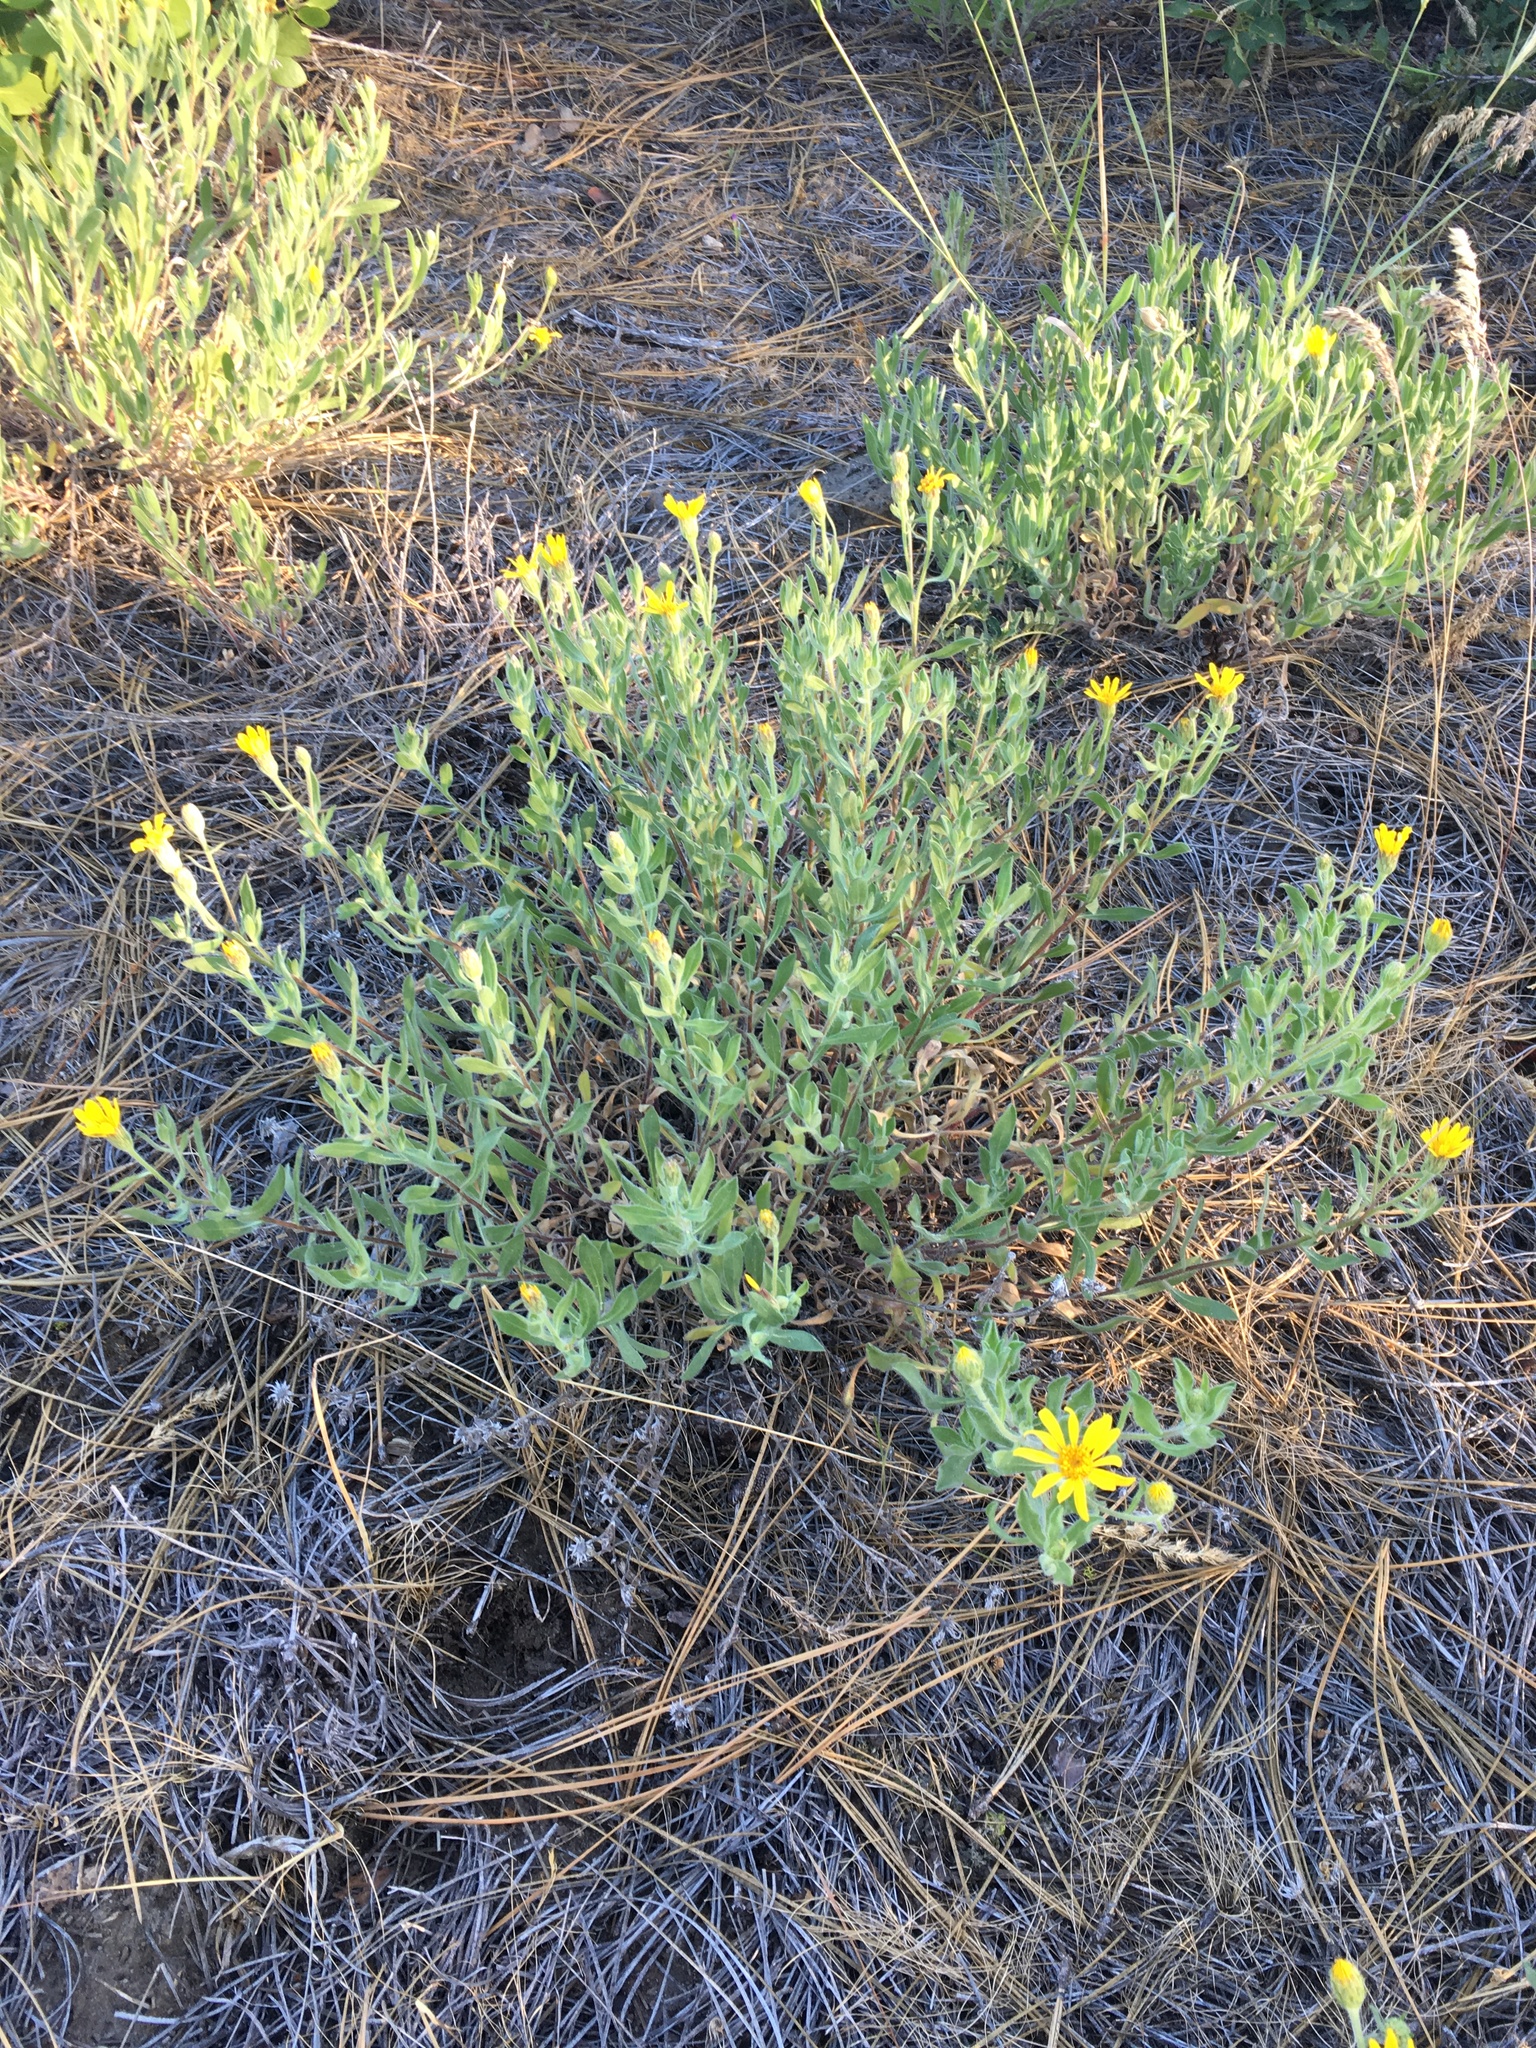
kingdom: Plantae
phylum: Tracheophyta
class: Magnoliopsida
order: Asterales
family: Asteraceae
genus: Heterotheca
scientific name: Heterotheca orovillosa
